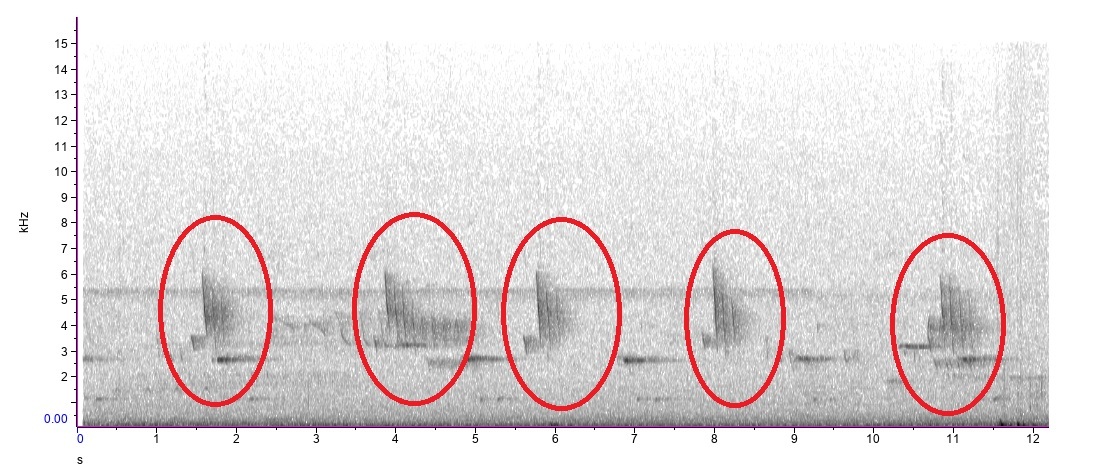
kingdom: Animalia
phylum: Chordata
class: Aves
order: Passeriformes
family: Fringillidae
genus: Spinus
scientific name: Spinus tristis
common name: American goldfinch
